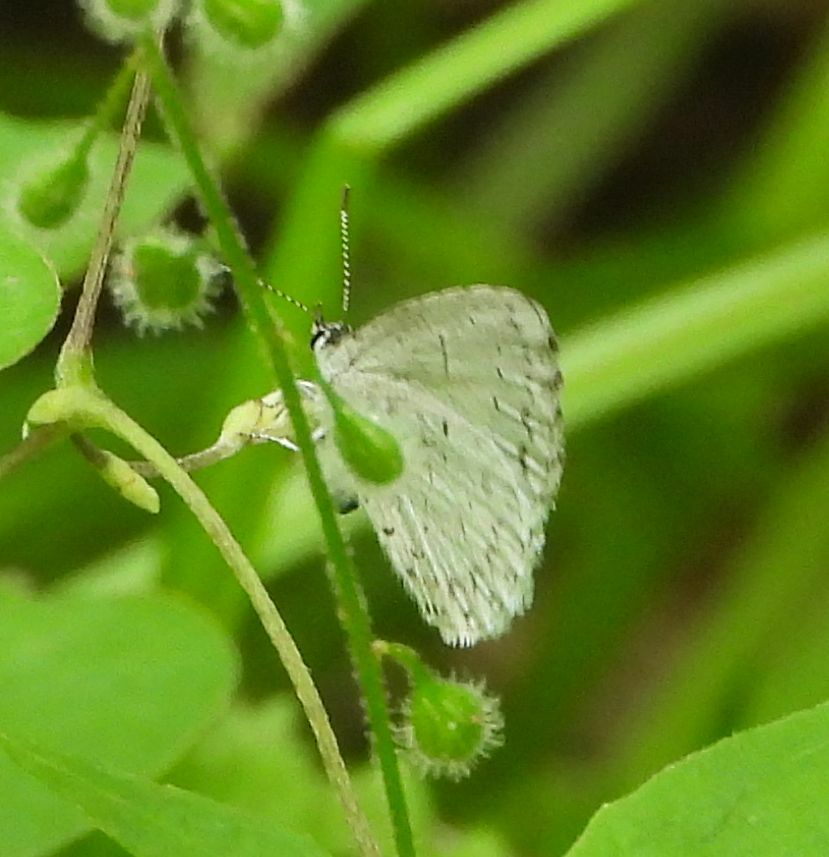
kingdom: Animalia
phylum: Arthropoda
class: Insecta
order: Lepidoptera
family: Lycaenidae
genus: Celastrina
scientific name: Celastrina lucia
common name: Lucia azure
